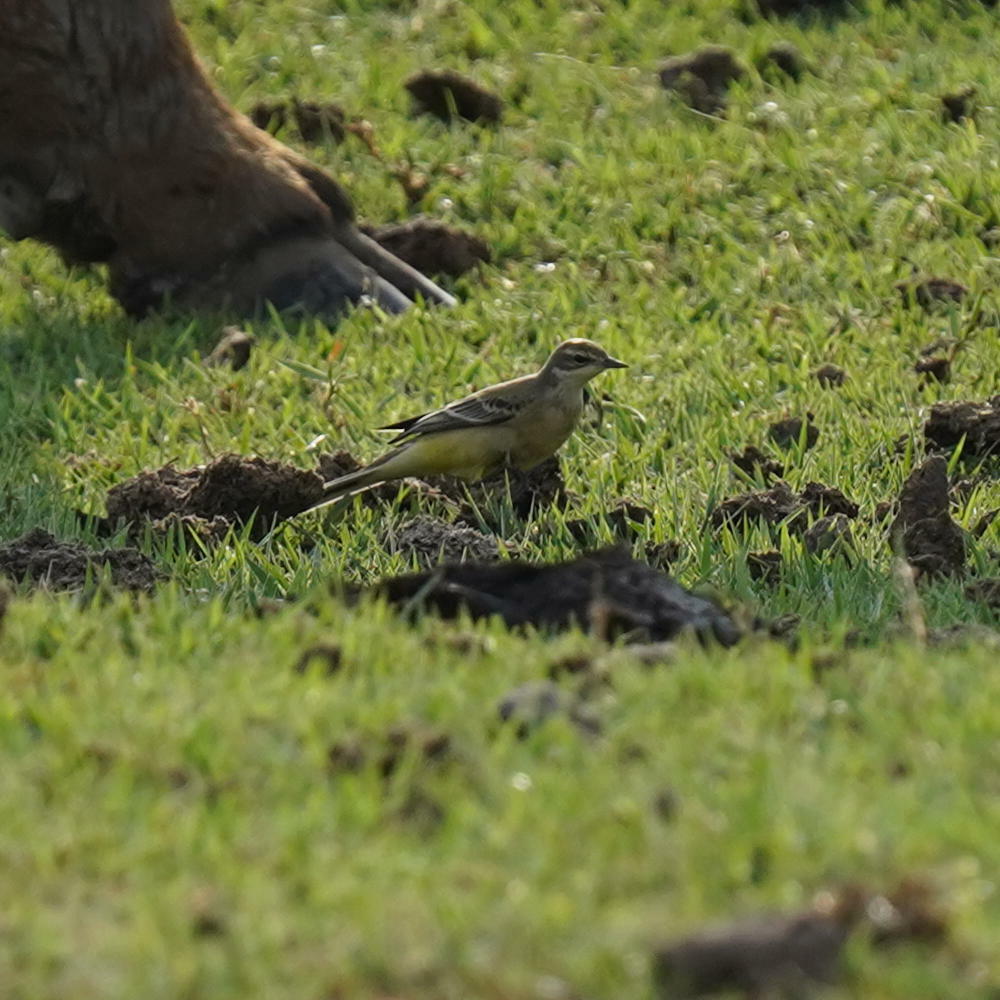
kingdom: Animalia
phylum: Chordata
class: Aves
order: Passeriformes
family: Motacillidae
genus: Motacilla
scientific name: Motacilla flava
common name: Western yellow wagtail
